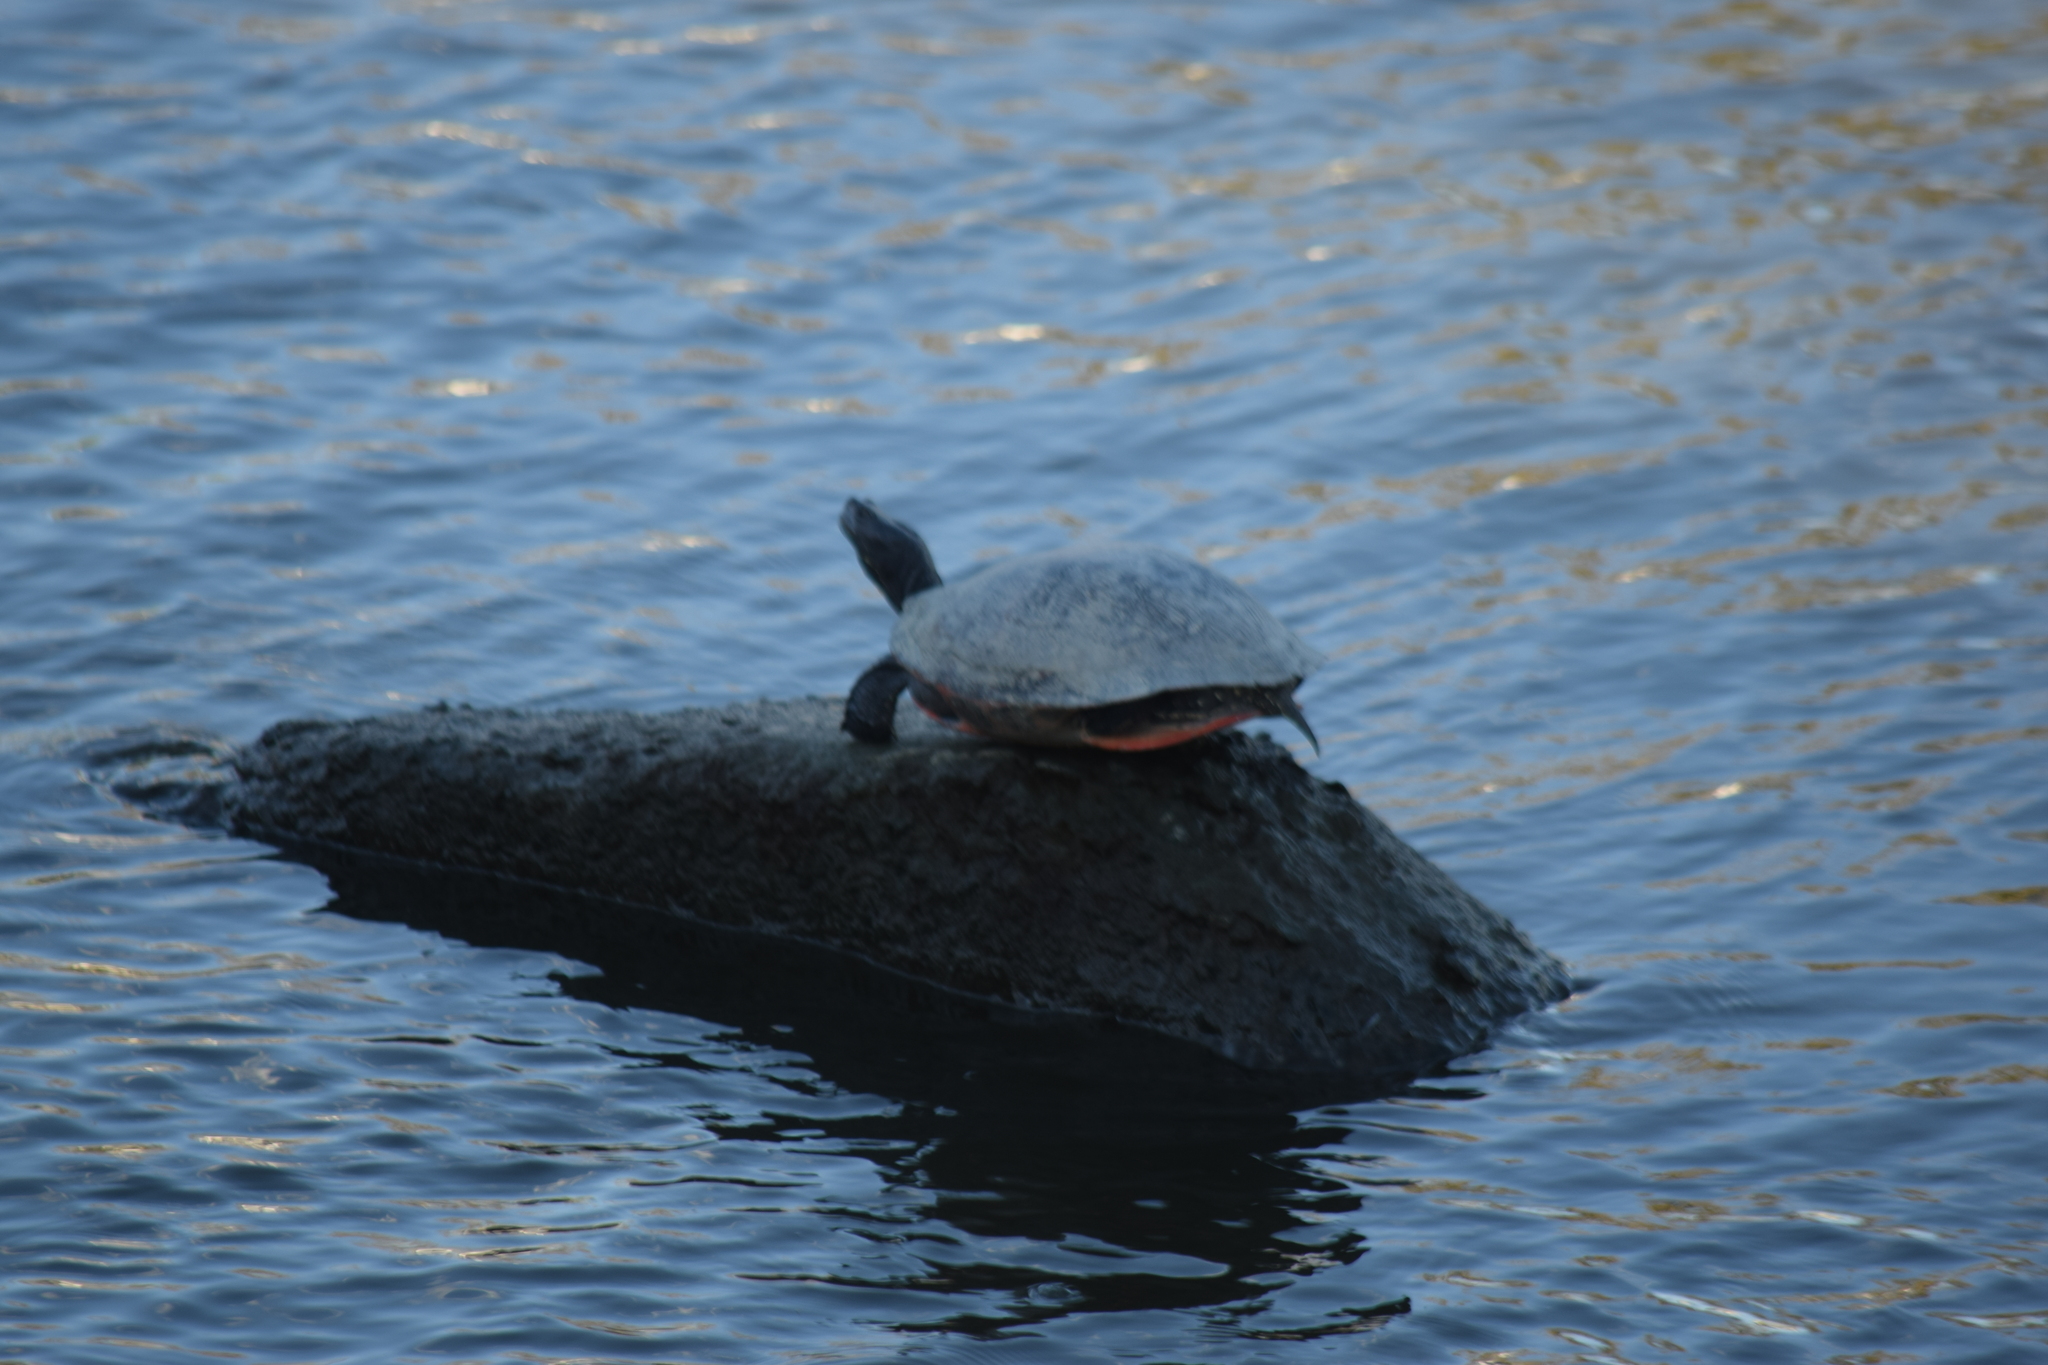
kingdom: Animalia
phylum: Chordata
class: Testudines
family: Emydidae
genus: Pseudemys
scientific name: Pseudemys rubriventris
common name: American red-bellied turtle
